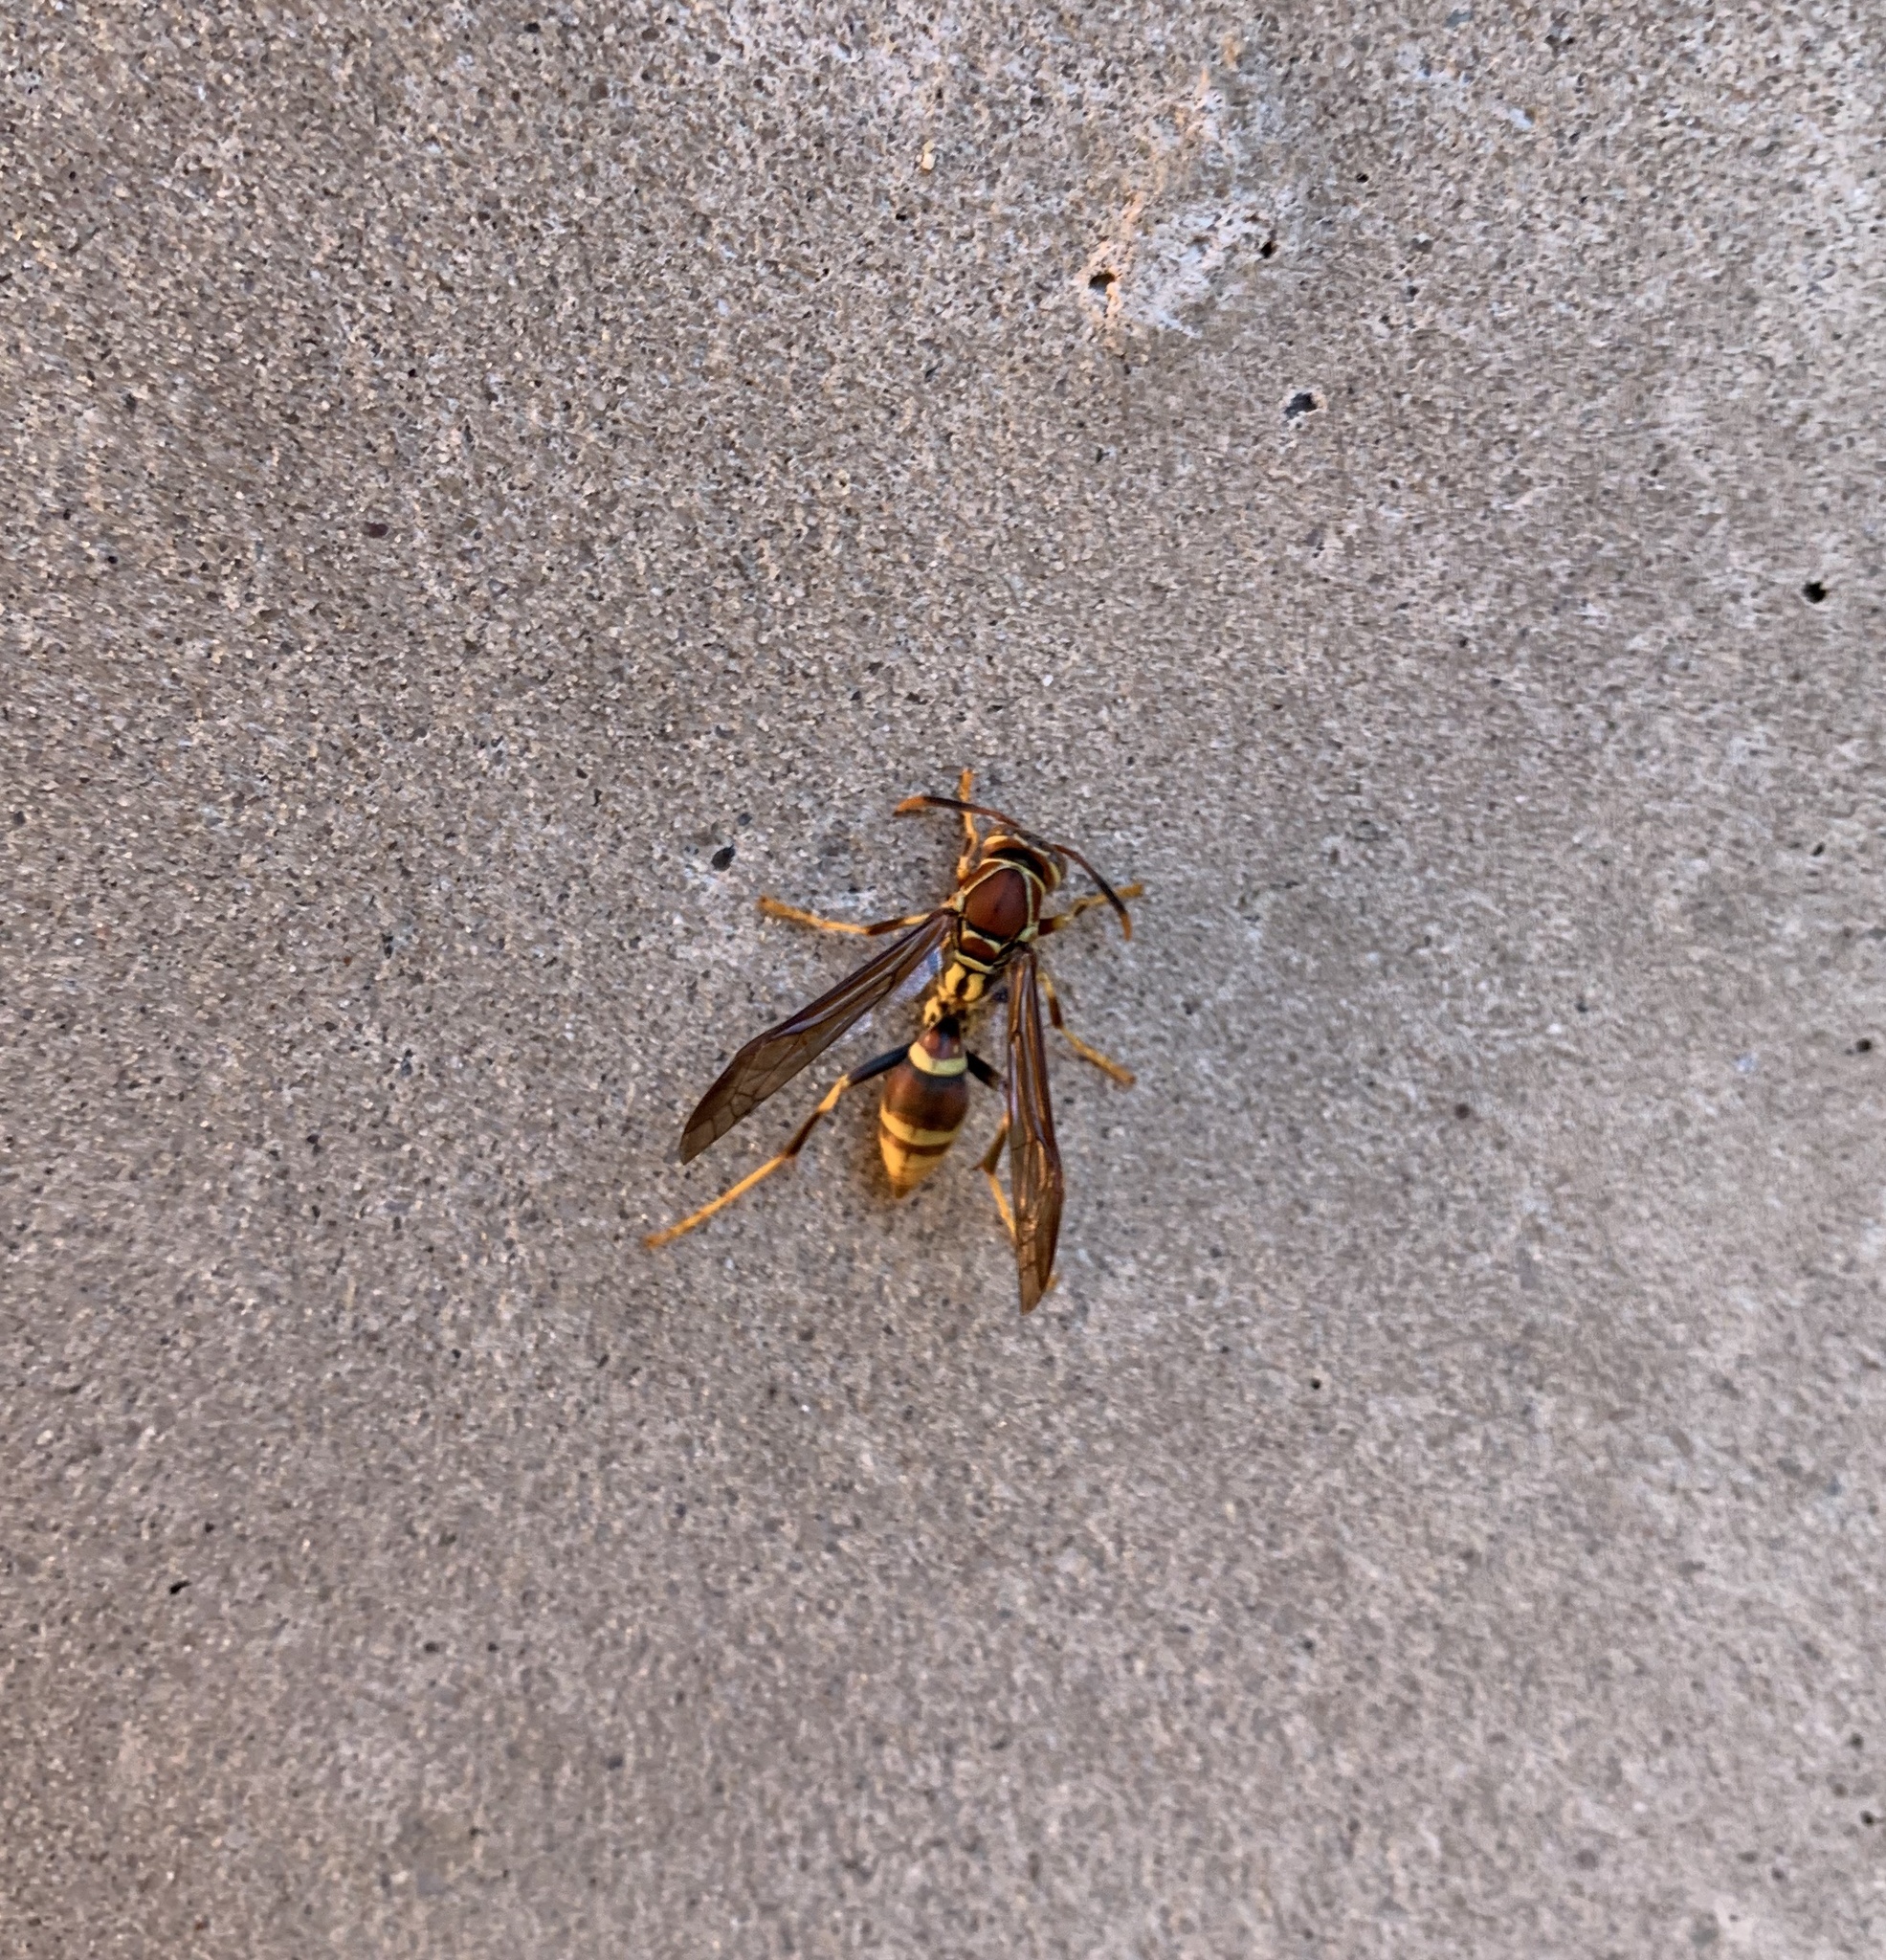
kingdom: Animalia
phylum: Arthropoda
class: Insecta
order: Hymenoptera
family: Eumenidae
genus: Polistes
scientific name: Polistes exclamans
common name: Paper wasp
